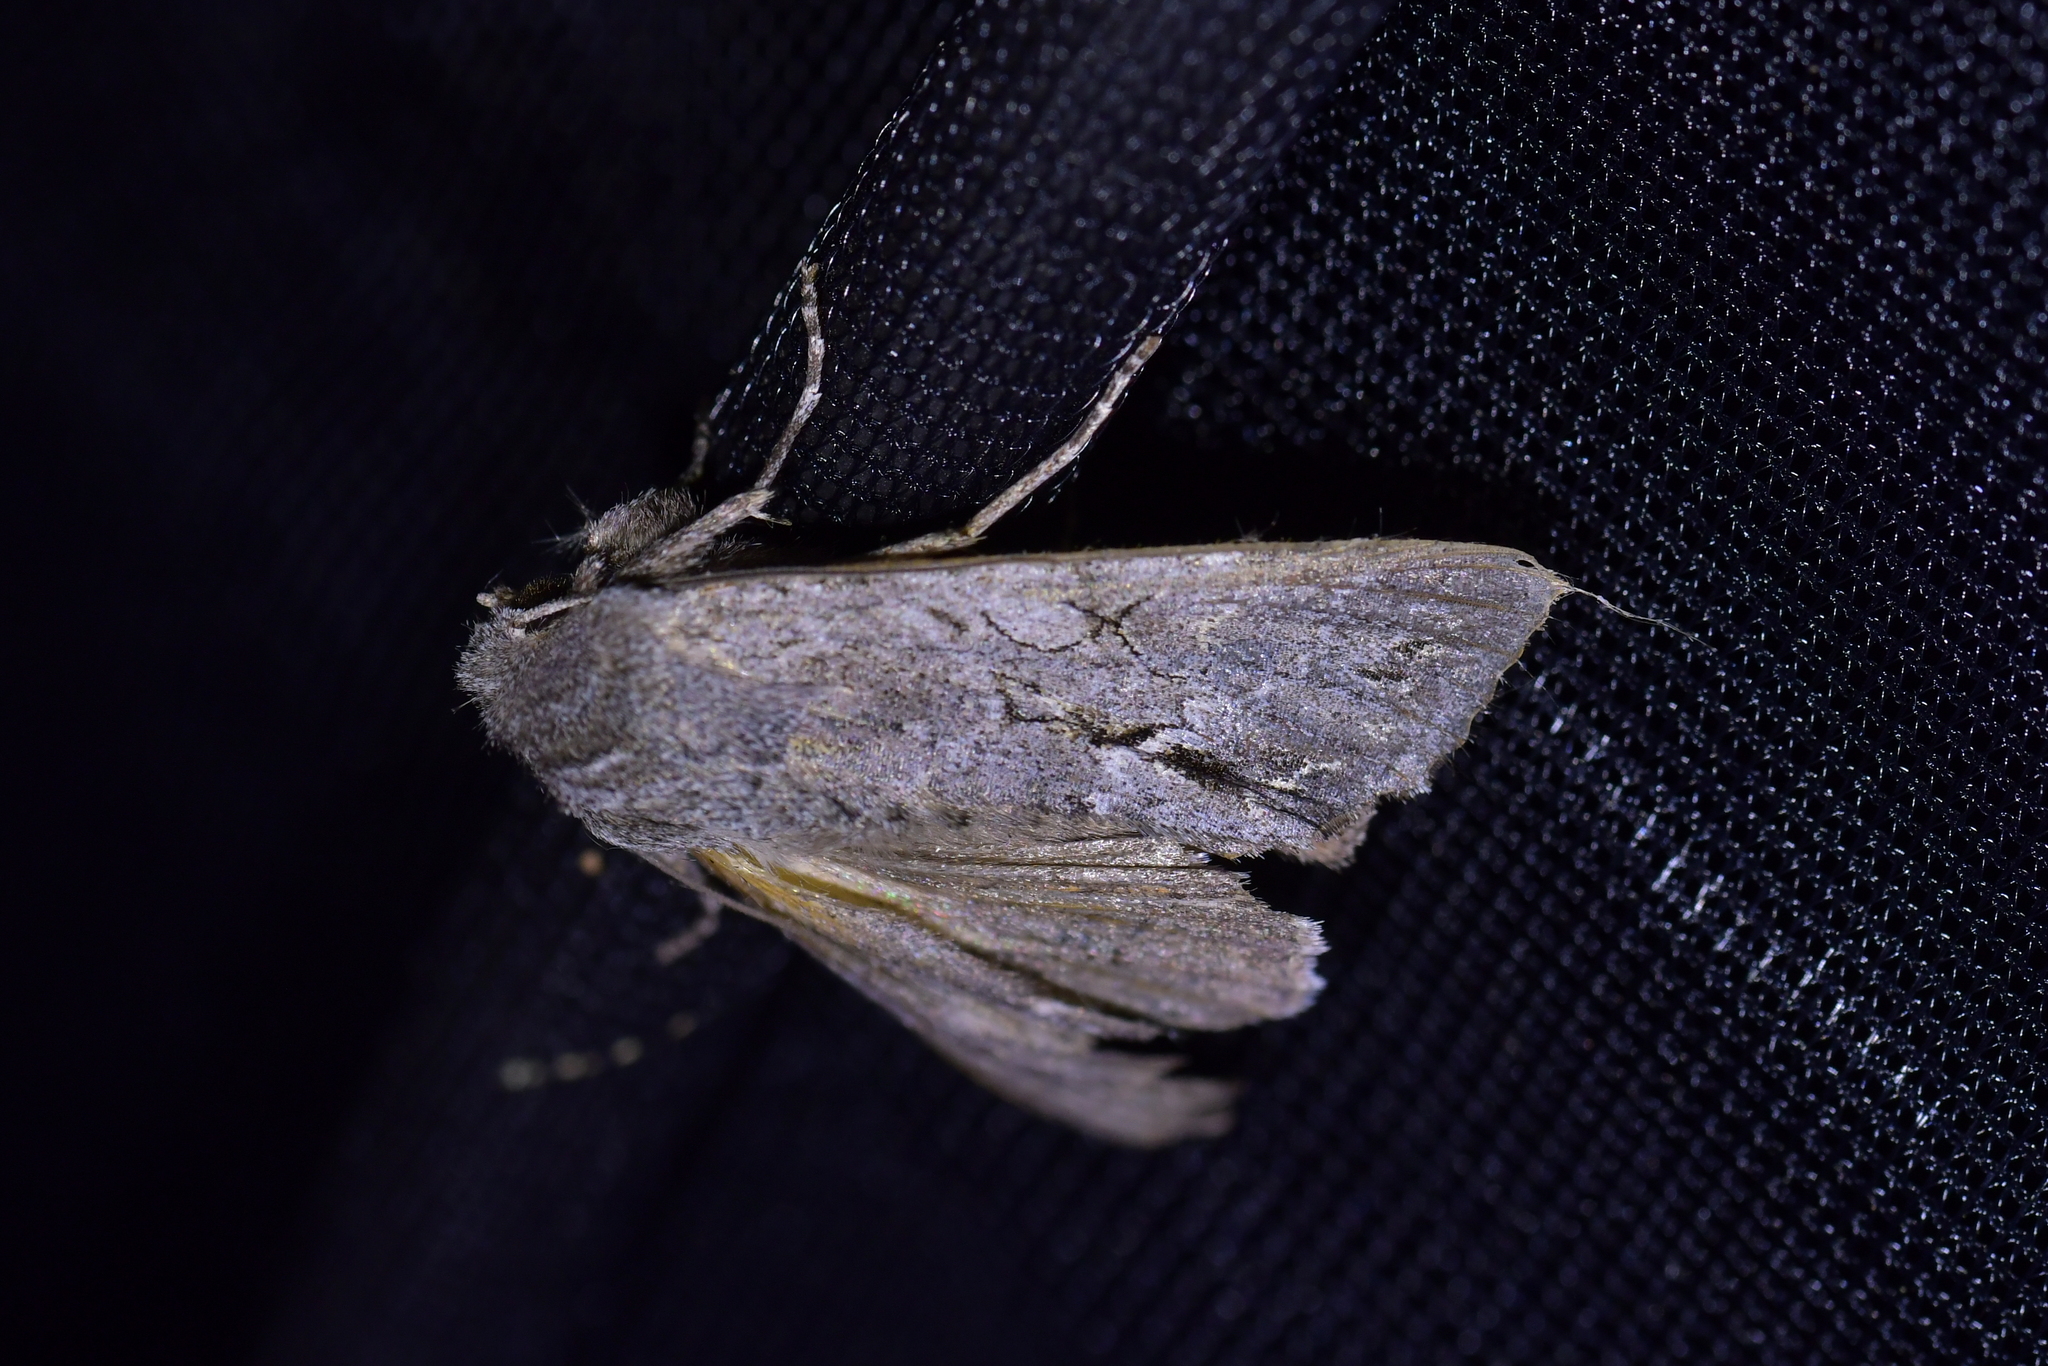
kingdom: Animalia
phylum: Arthropoda
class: Insecta
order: Lepidoptera
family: Noctuidae
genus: Ichneutica
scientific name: Ichneutica
